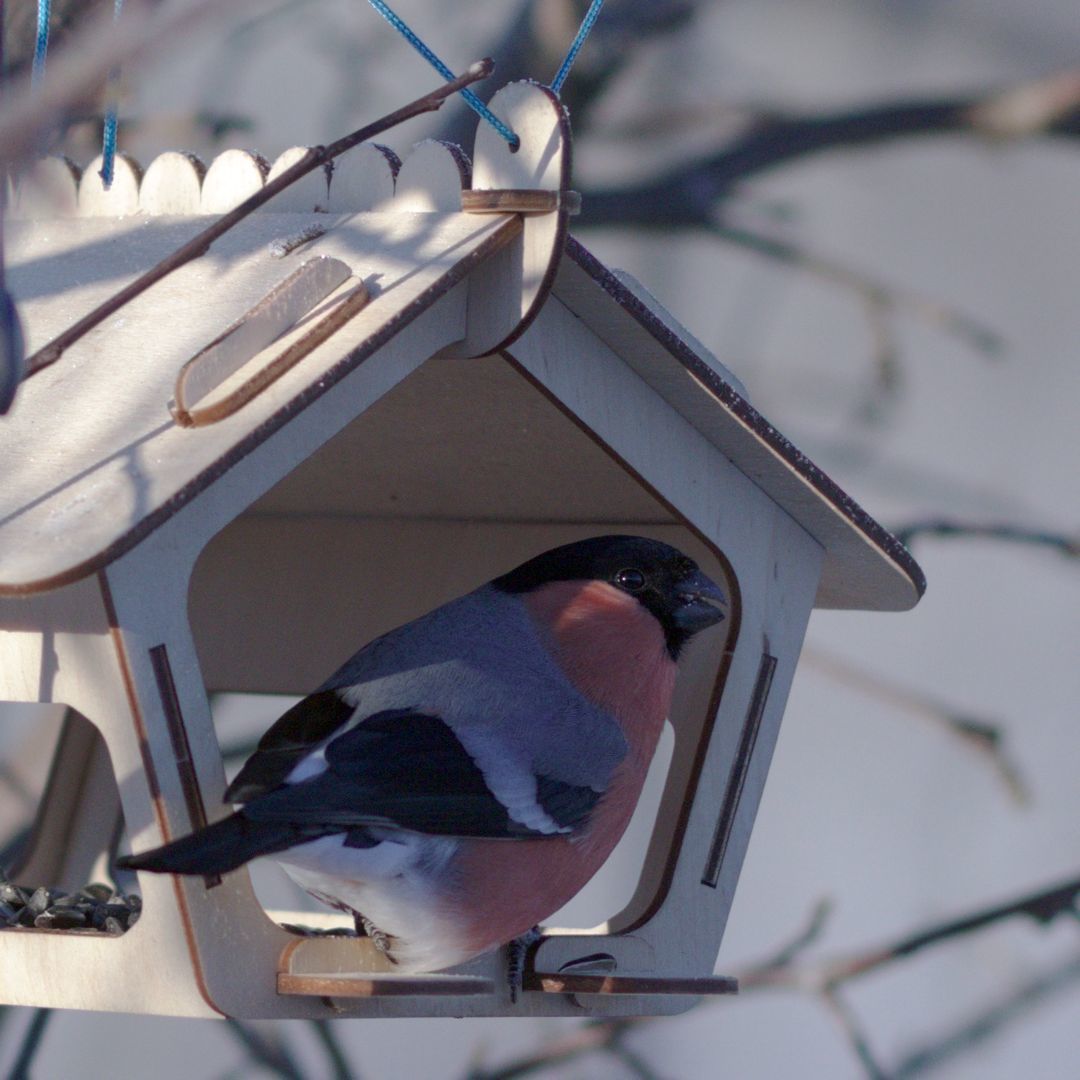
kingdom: Animalia
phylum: Chordata
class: Aves
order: Passeriformes
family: Fringillidae
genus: Pyrrhula
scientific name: Pyrrhula pyrrhula
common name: Eurasian bullfinch
